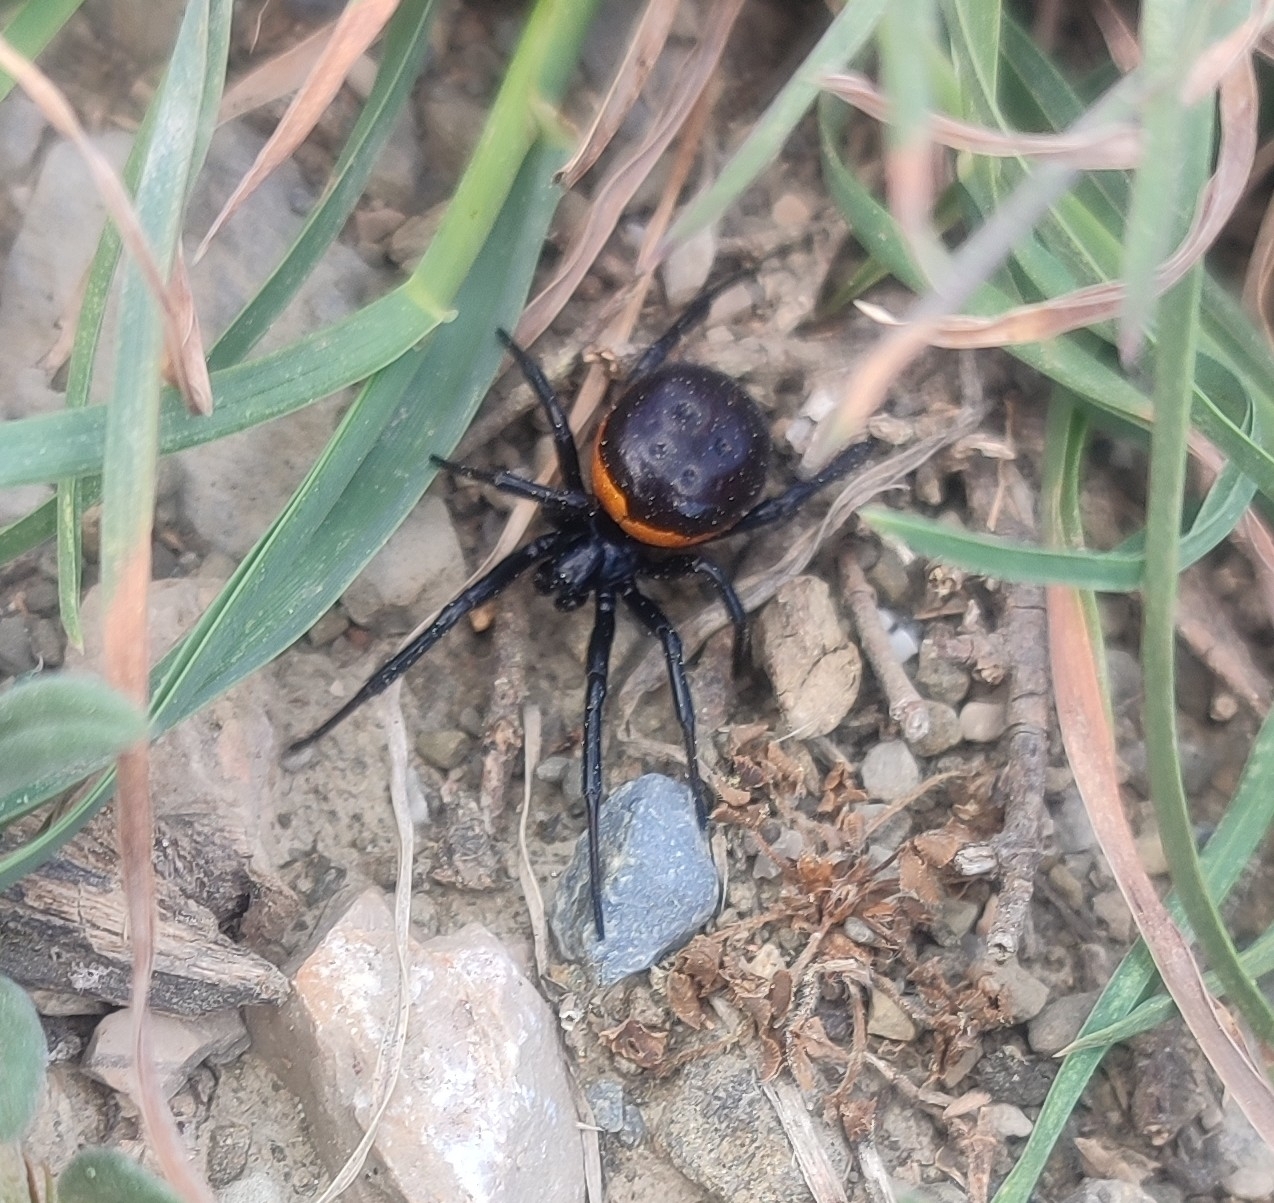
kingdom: Animalia
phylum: Arthropoda
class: Arachnida
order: Araneae
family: Theridiidae
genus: Steatoda
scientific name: Steatoda paykulliana
